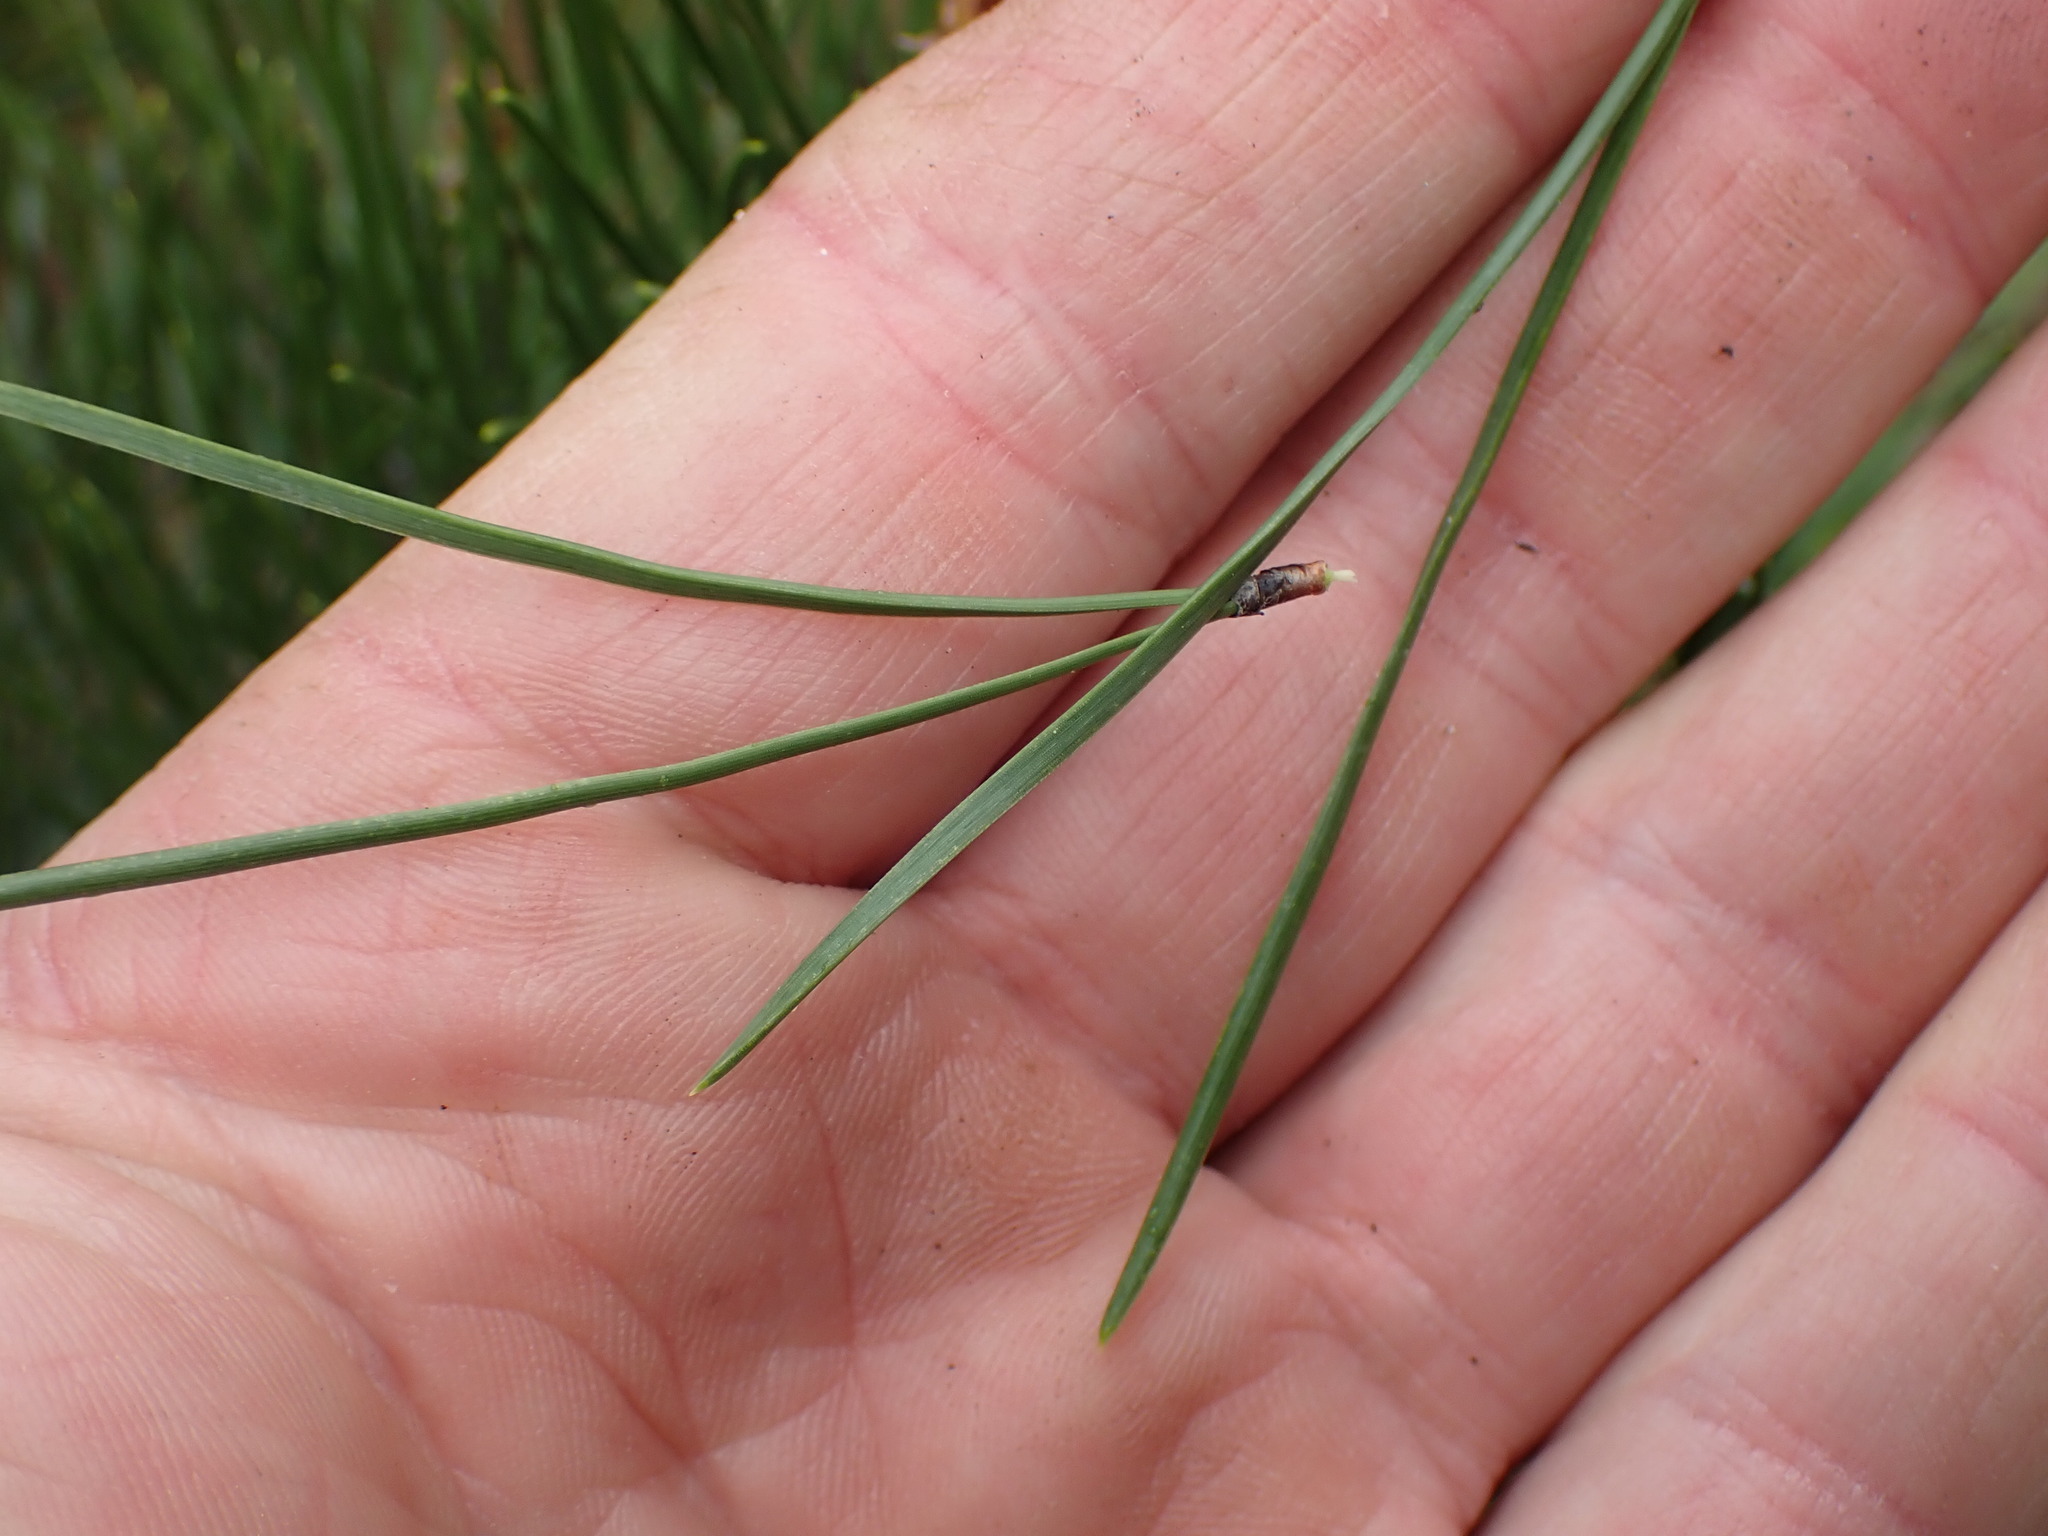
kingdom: Plantae
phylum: Tracheophyta
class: Pinopsida
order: Pinales
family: Pinaceae
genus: Pinus
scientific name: Pinus contorta
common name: Lodgepole pine
